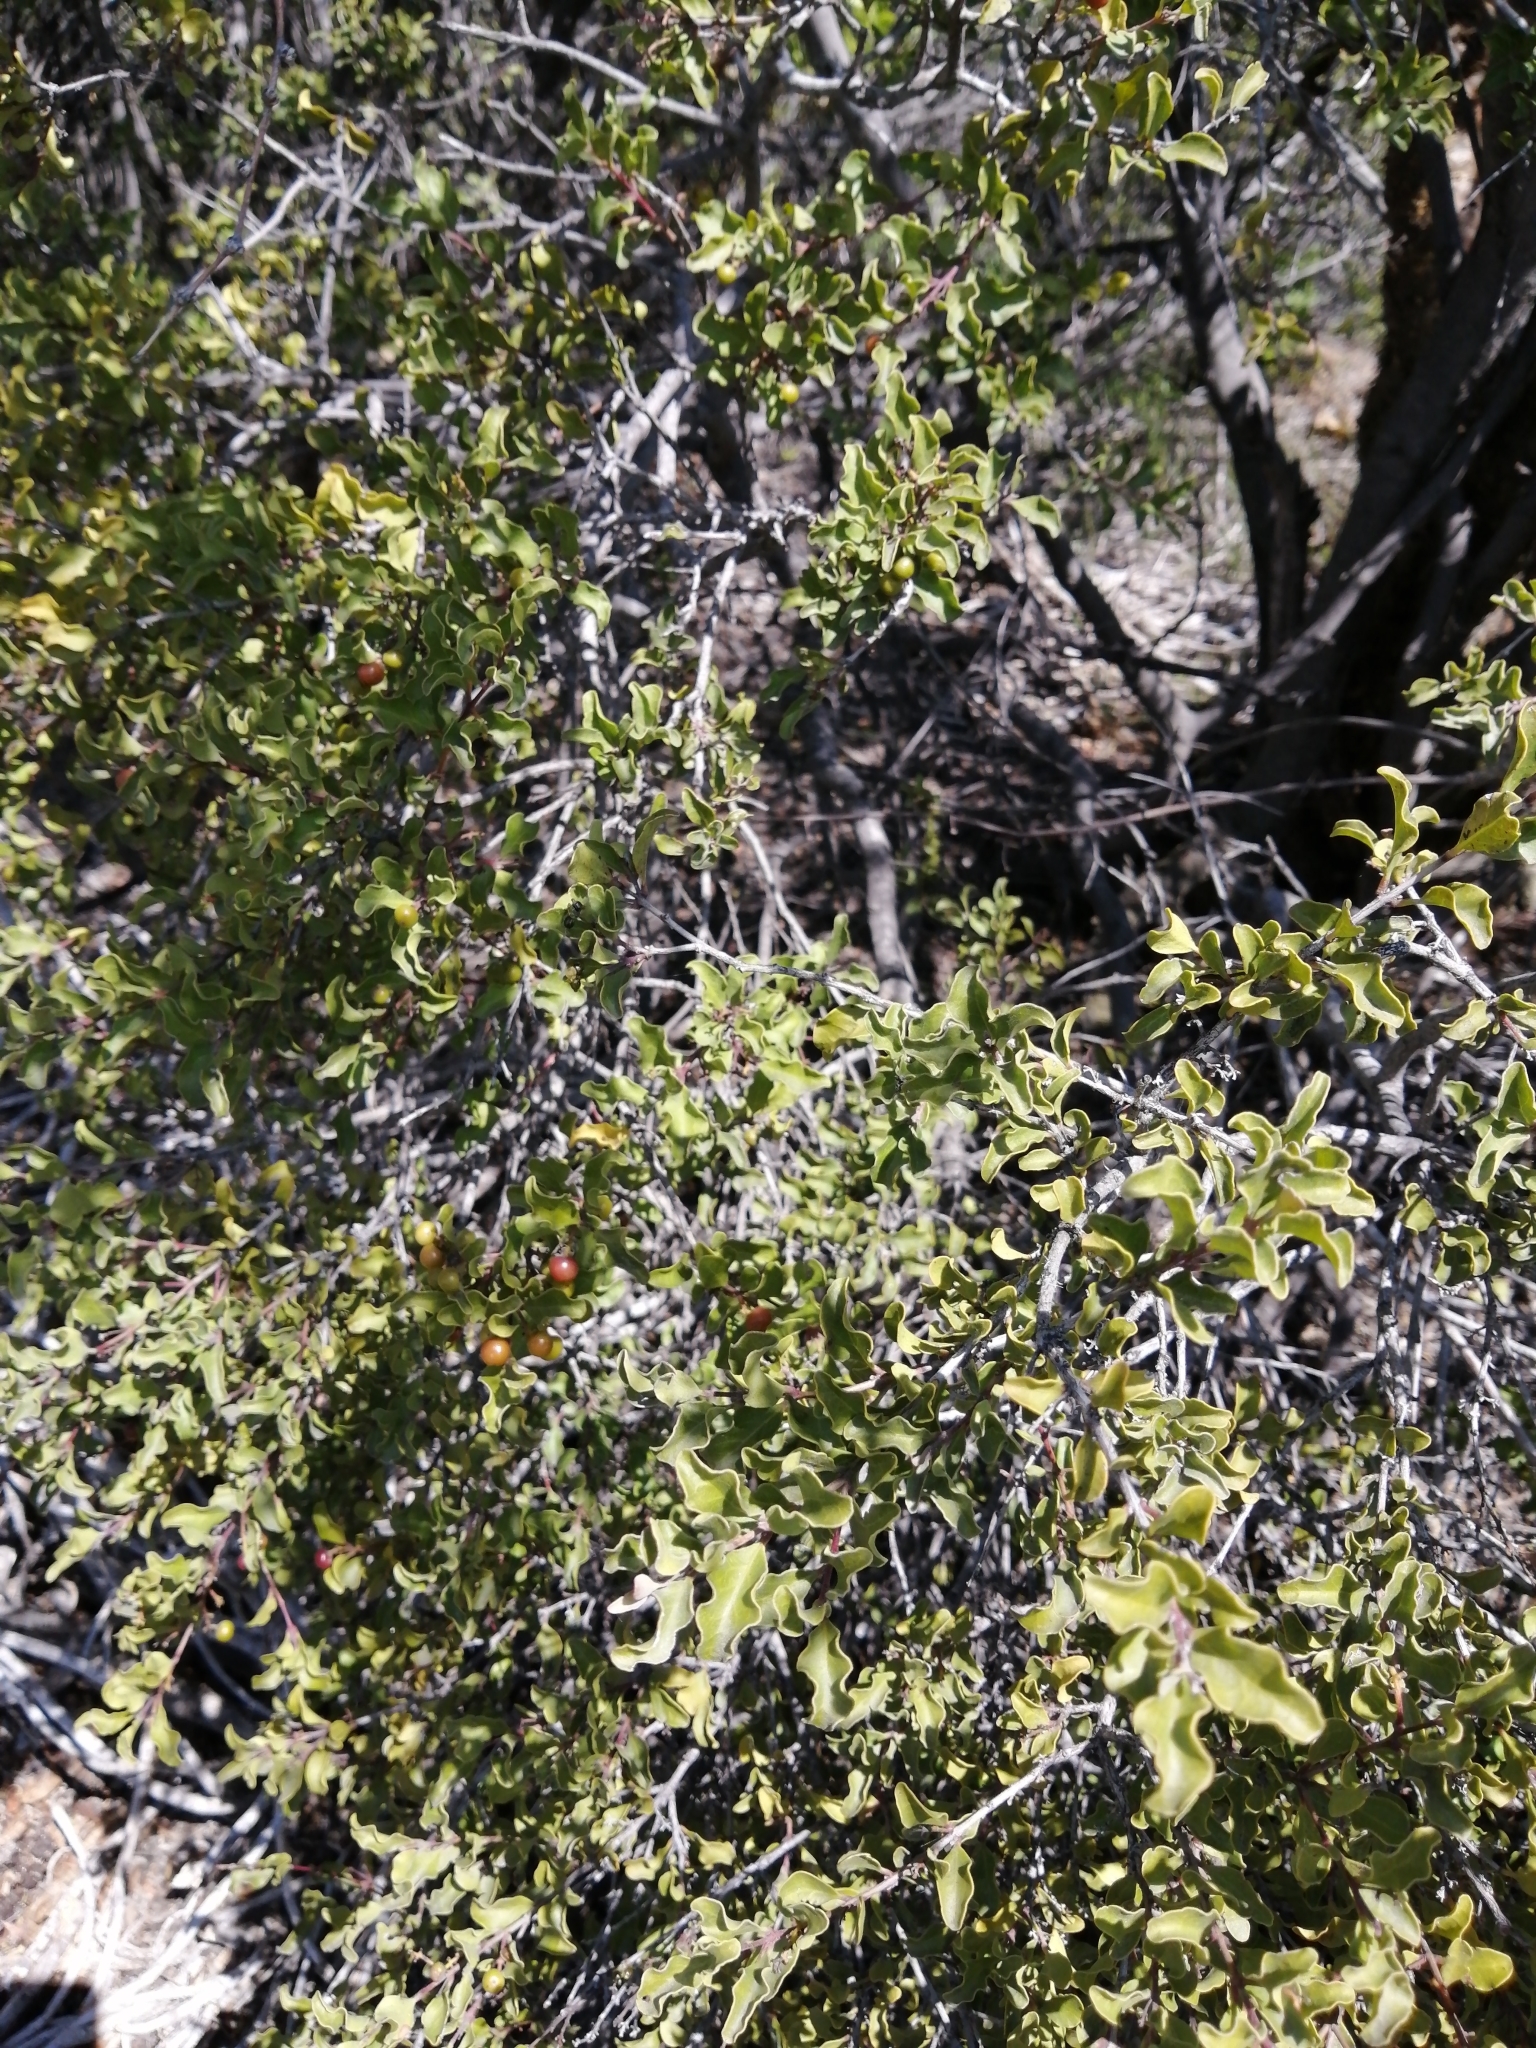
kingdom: Plantae
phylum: Tracheophyta
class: Magnoliopsida
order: Ericales
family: Ebenaceae
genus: Euclea
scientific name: Euclea undulata
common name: Small-leaved guarri
